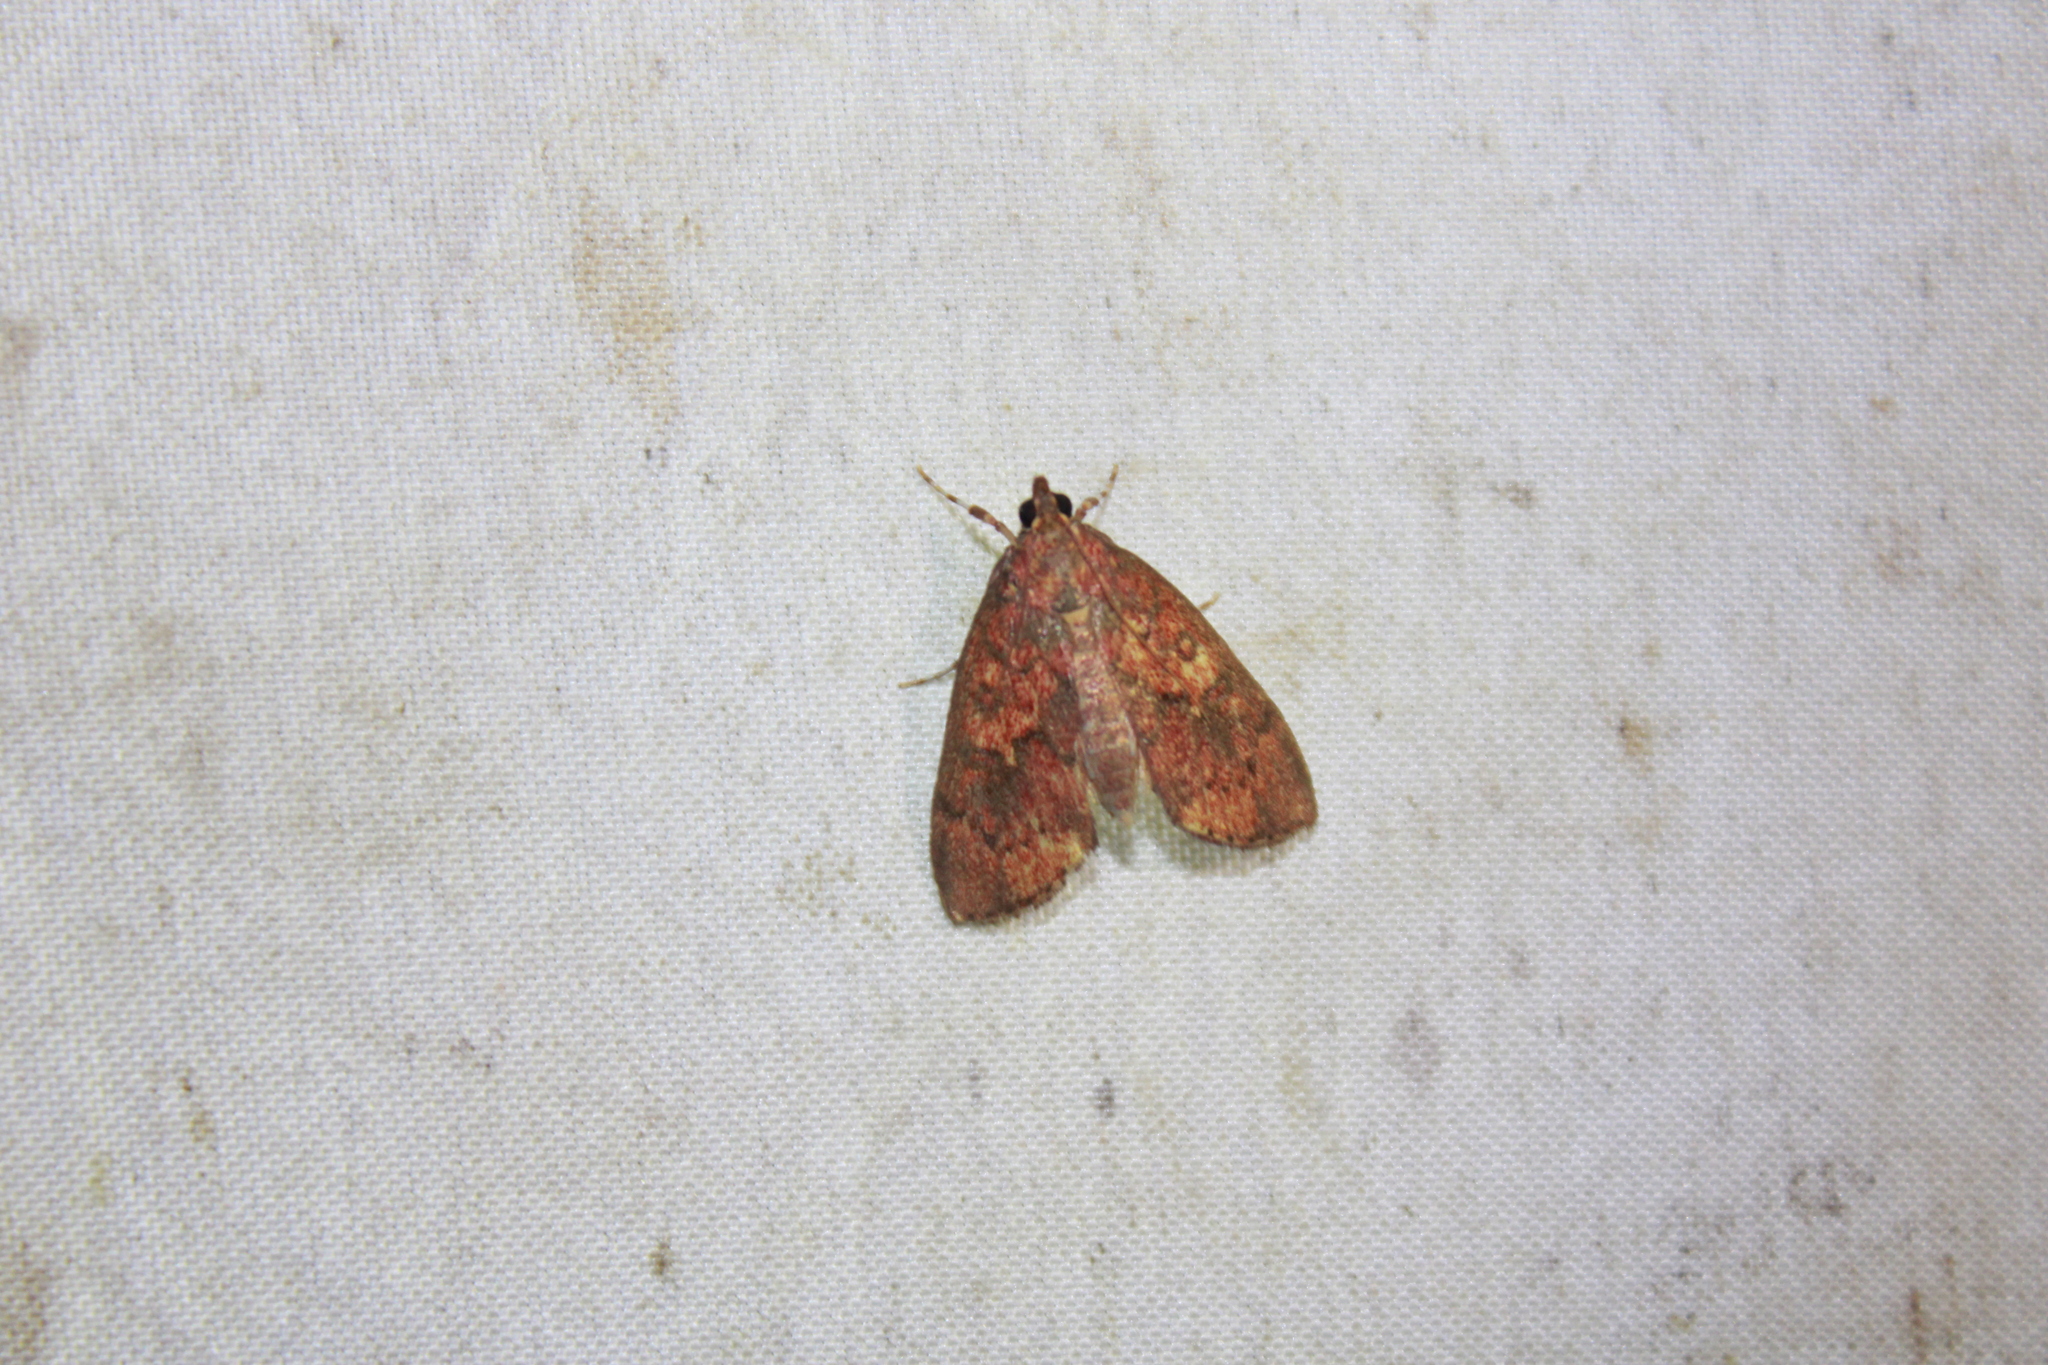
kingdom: Animalia
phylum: Arthropoda
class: Insecta
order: Lepidoptera
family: Crambidae
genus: Mimophobetron
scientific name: Mimophobetron pyropsalis
